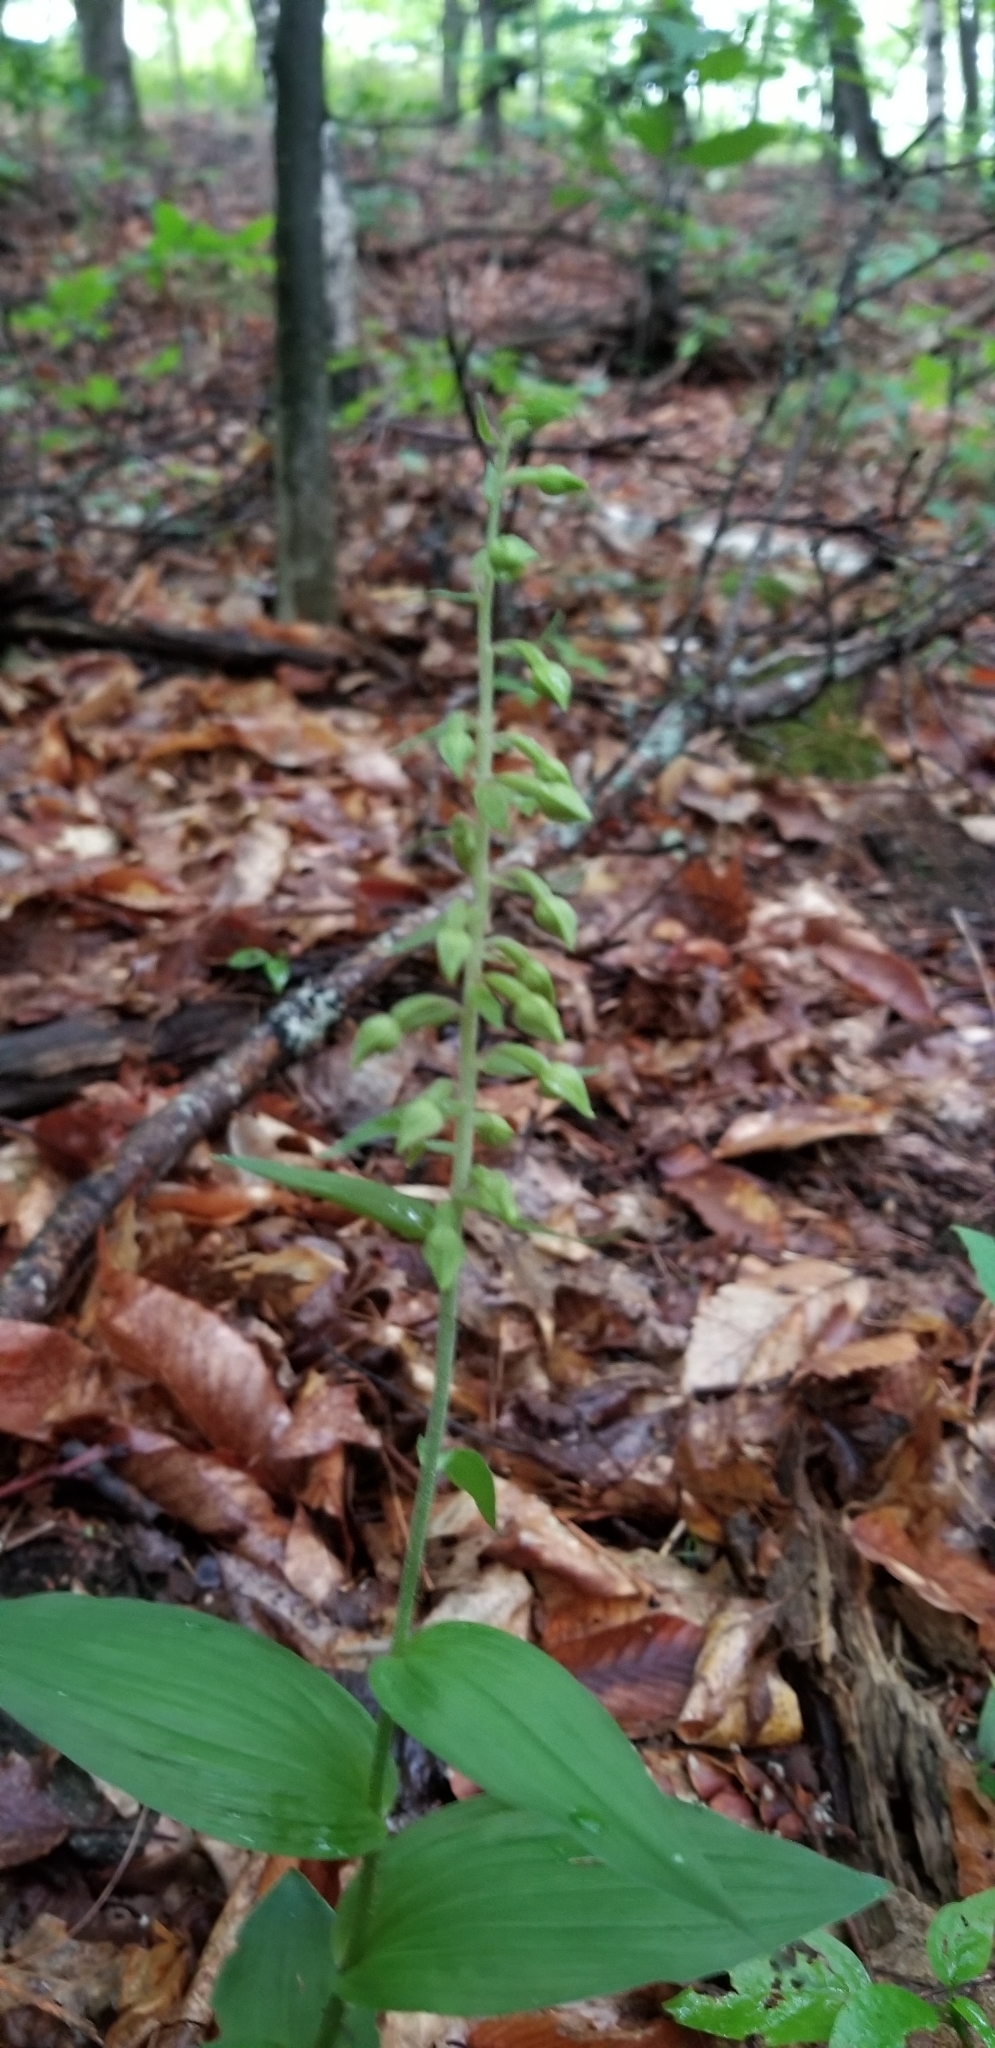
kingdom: Plantae
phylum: Tracheophyta
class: Liliopsida
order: Asparagales
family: Orchidaceae
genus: Epipactis
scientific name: Epipactis helleborine
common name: Broad-leaved helleborine
